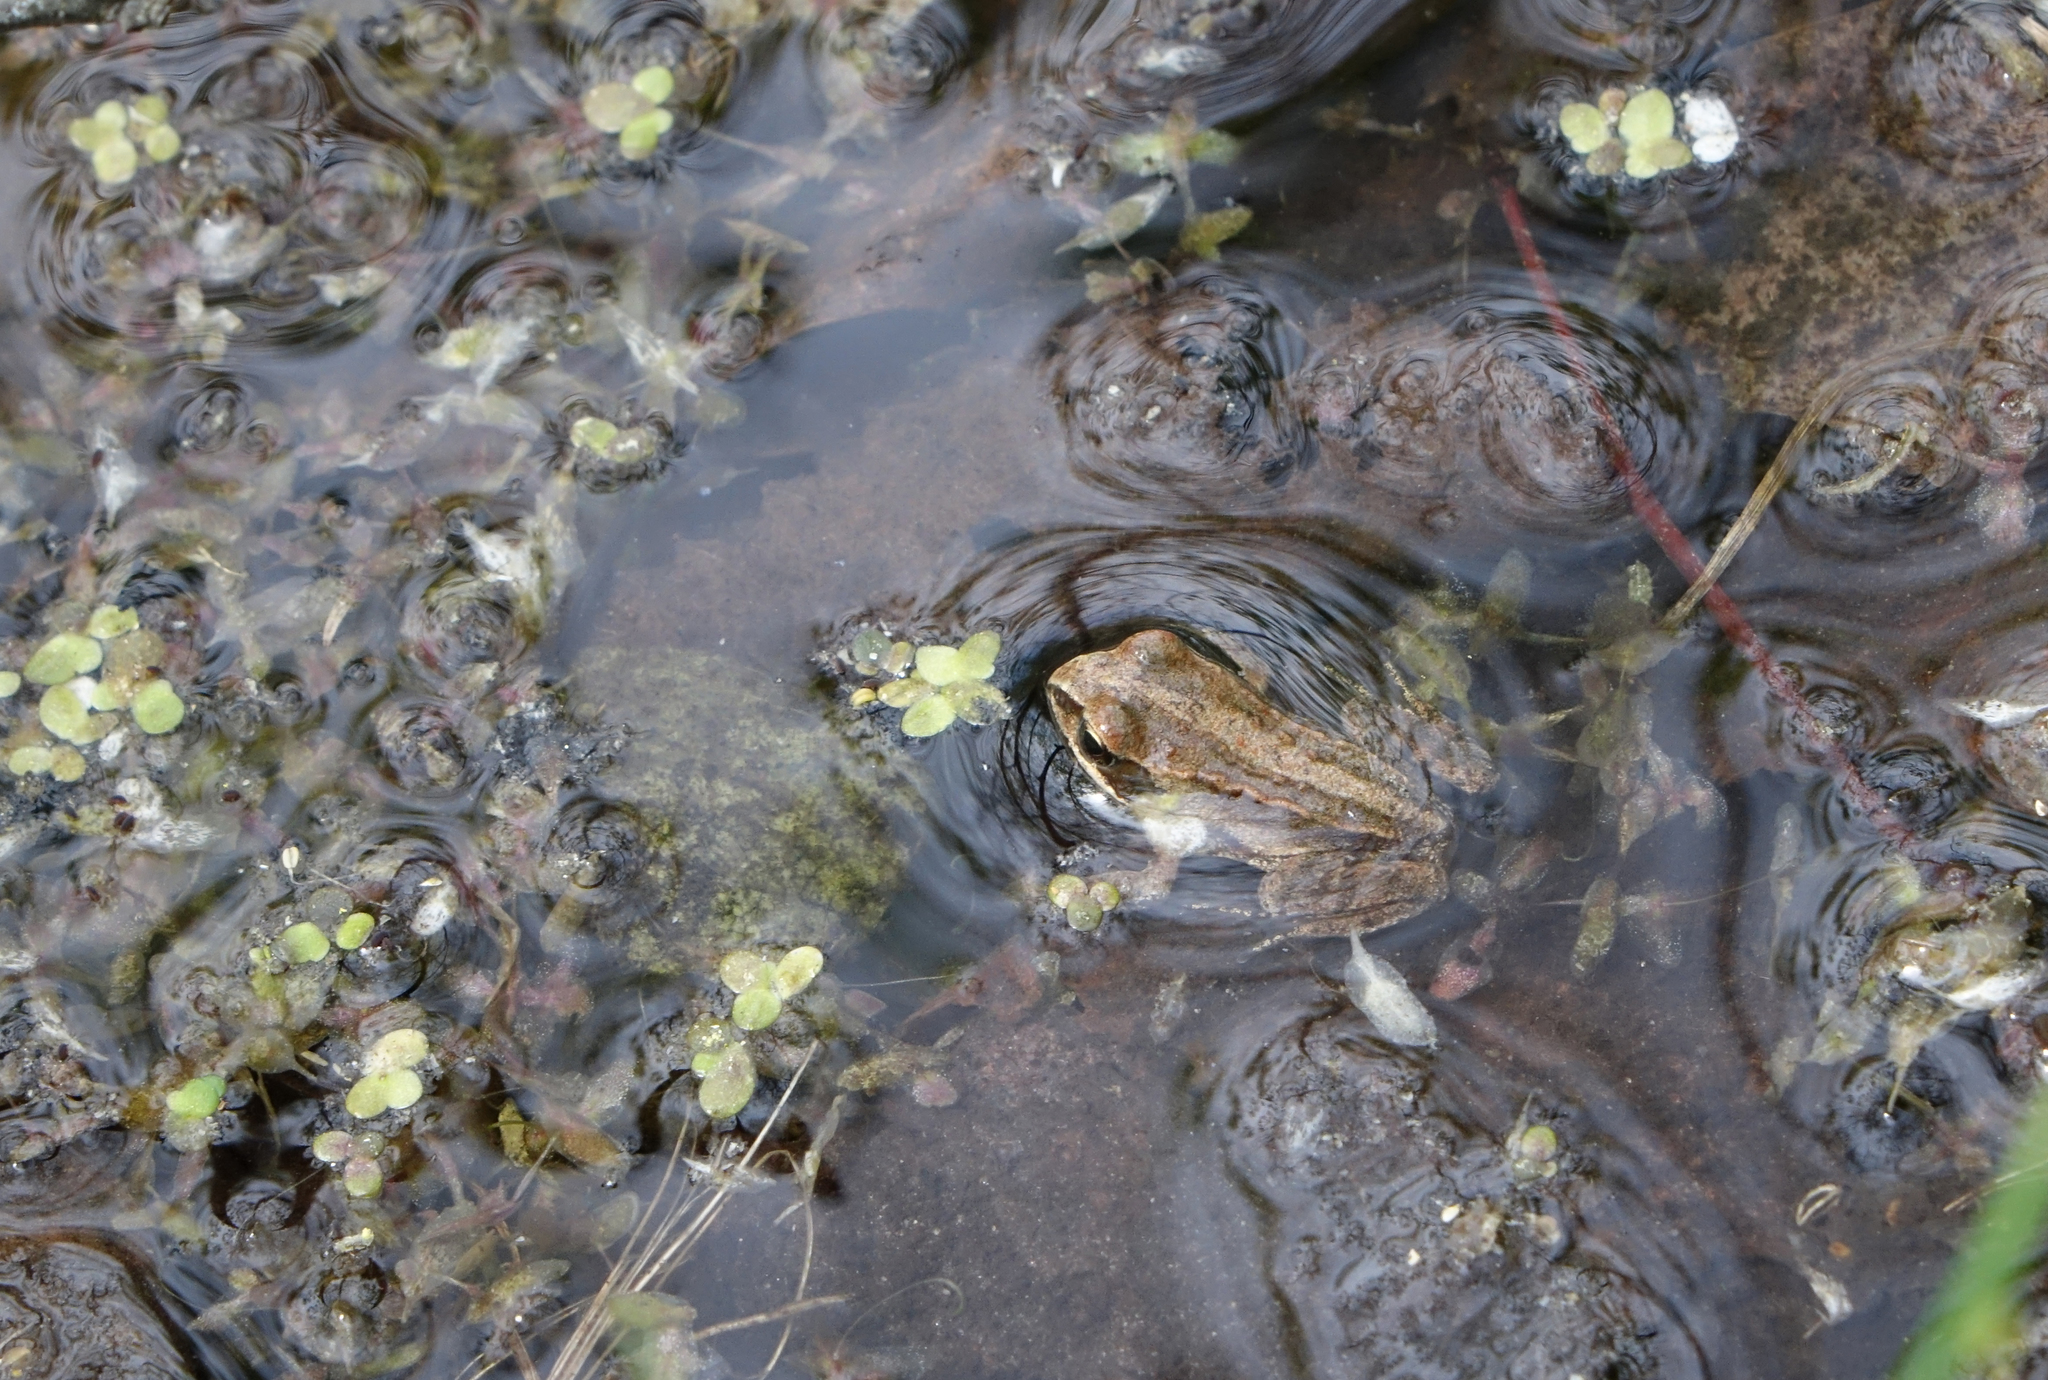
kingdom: Animalia
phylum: Chordata
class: Amphibia
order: Anura
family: Ranidae
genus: Rana
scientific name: Rana arvalis
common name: Moor frog
